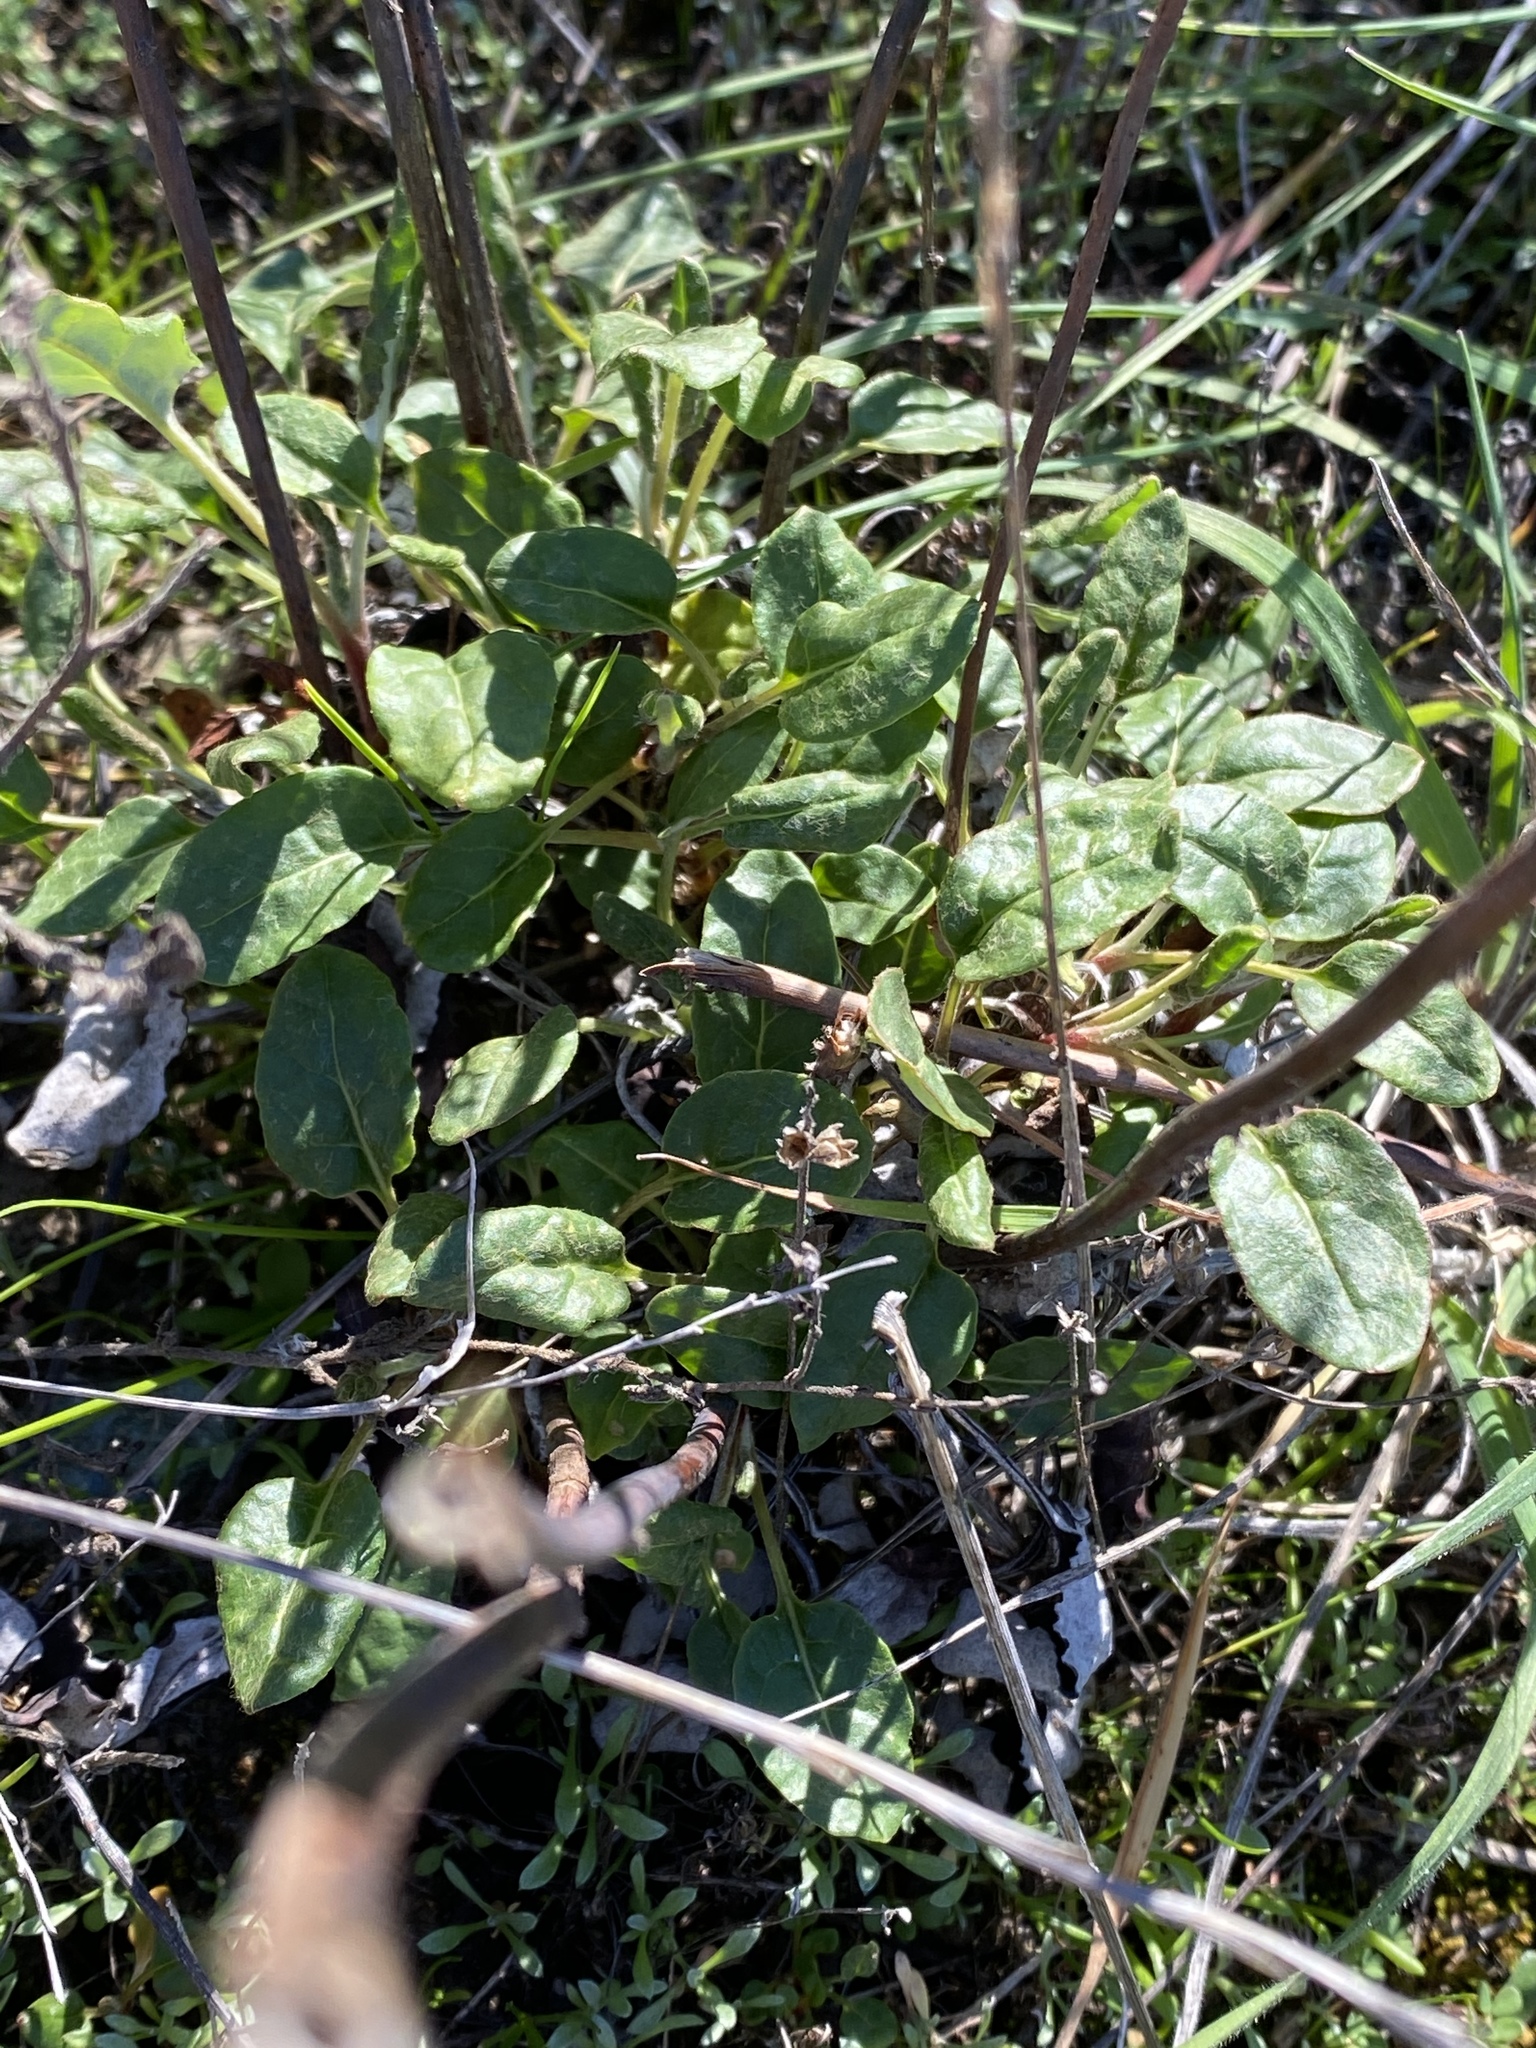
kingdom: Plantae
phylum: Tracheophyta
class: Magnoliopsida
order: Caryophyllales
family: Polygonaceae
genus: Eriogonum
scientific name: Eriogonum nudum
